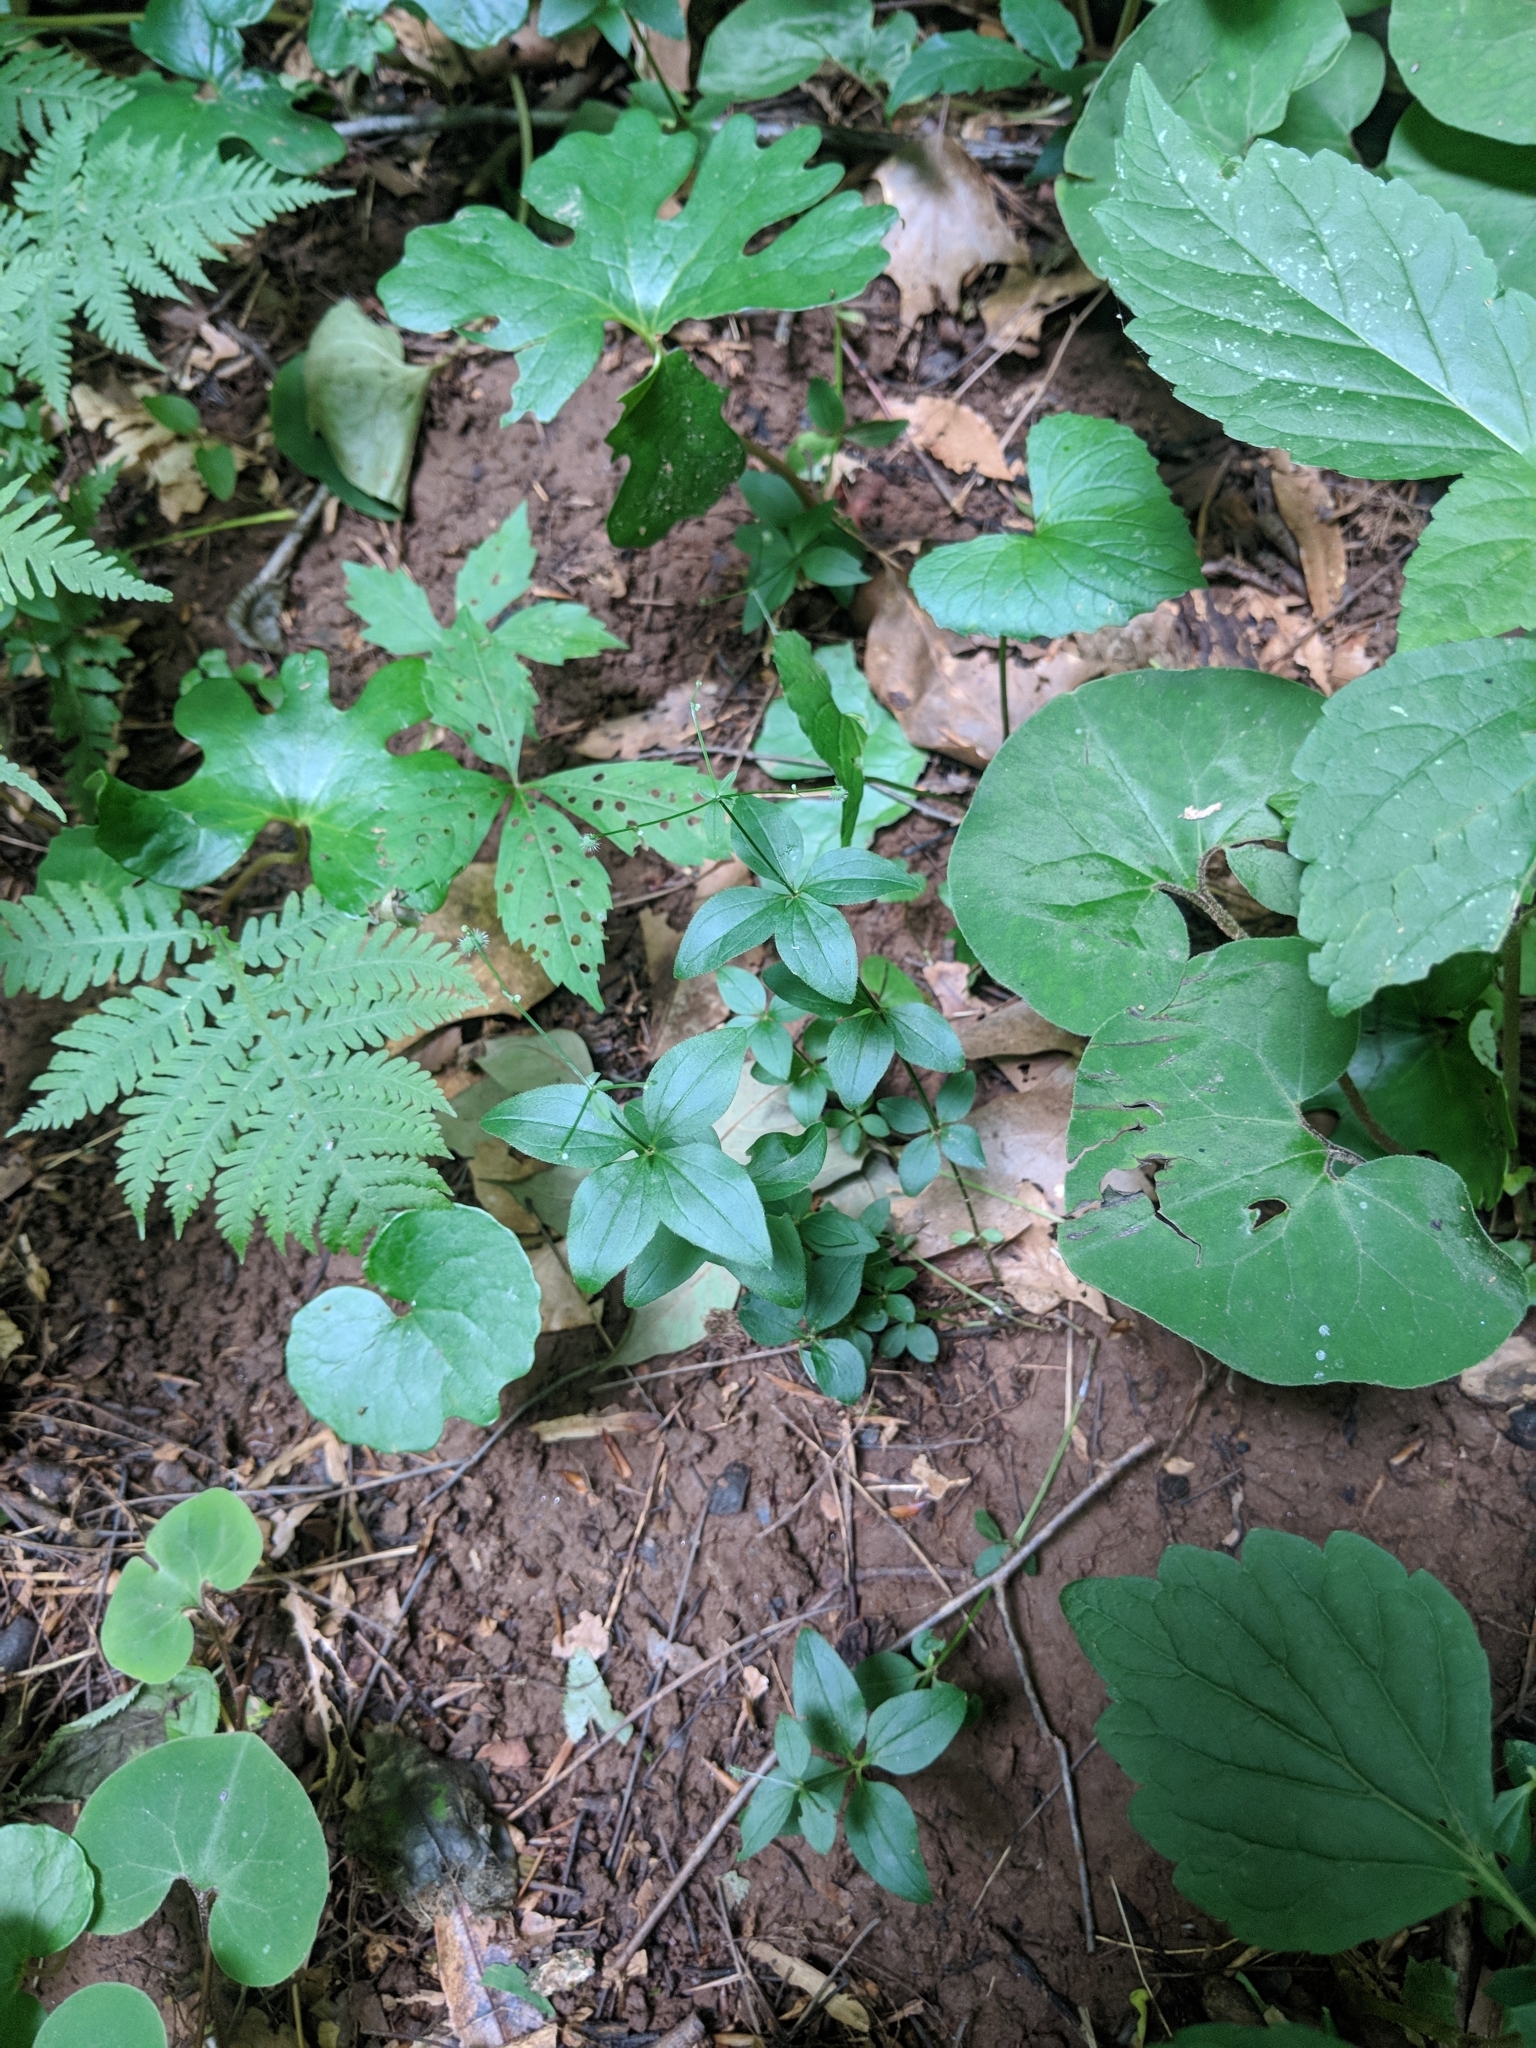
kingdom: Plantae
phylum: Tracheophyta
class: Magnoliopsida
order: Gentianales
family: Rubiaceae
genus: Galium
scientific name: Galium circaezans
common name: Forest bedstraw
